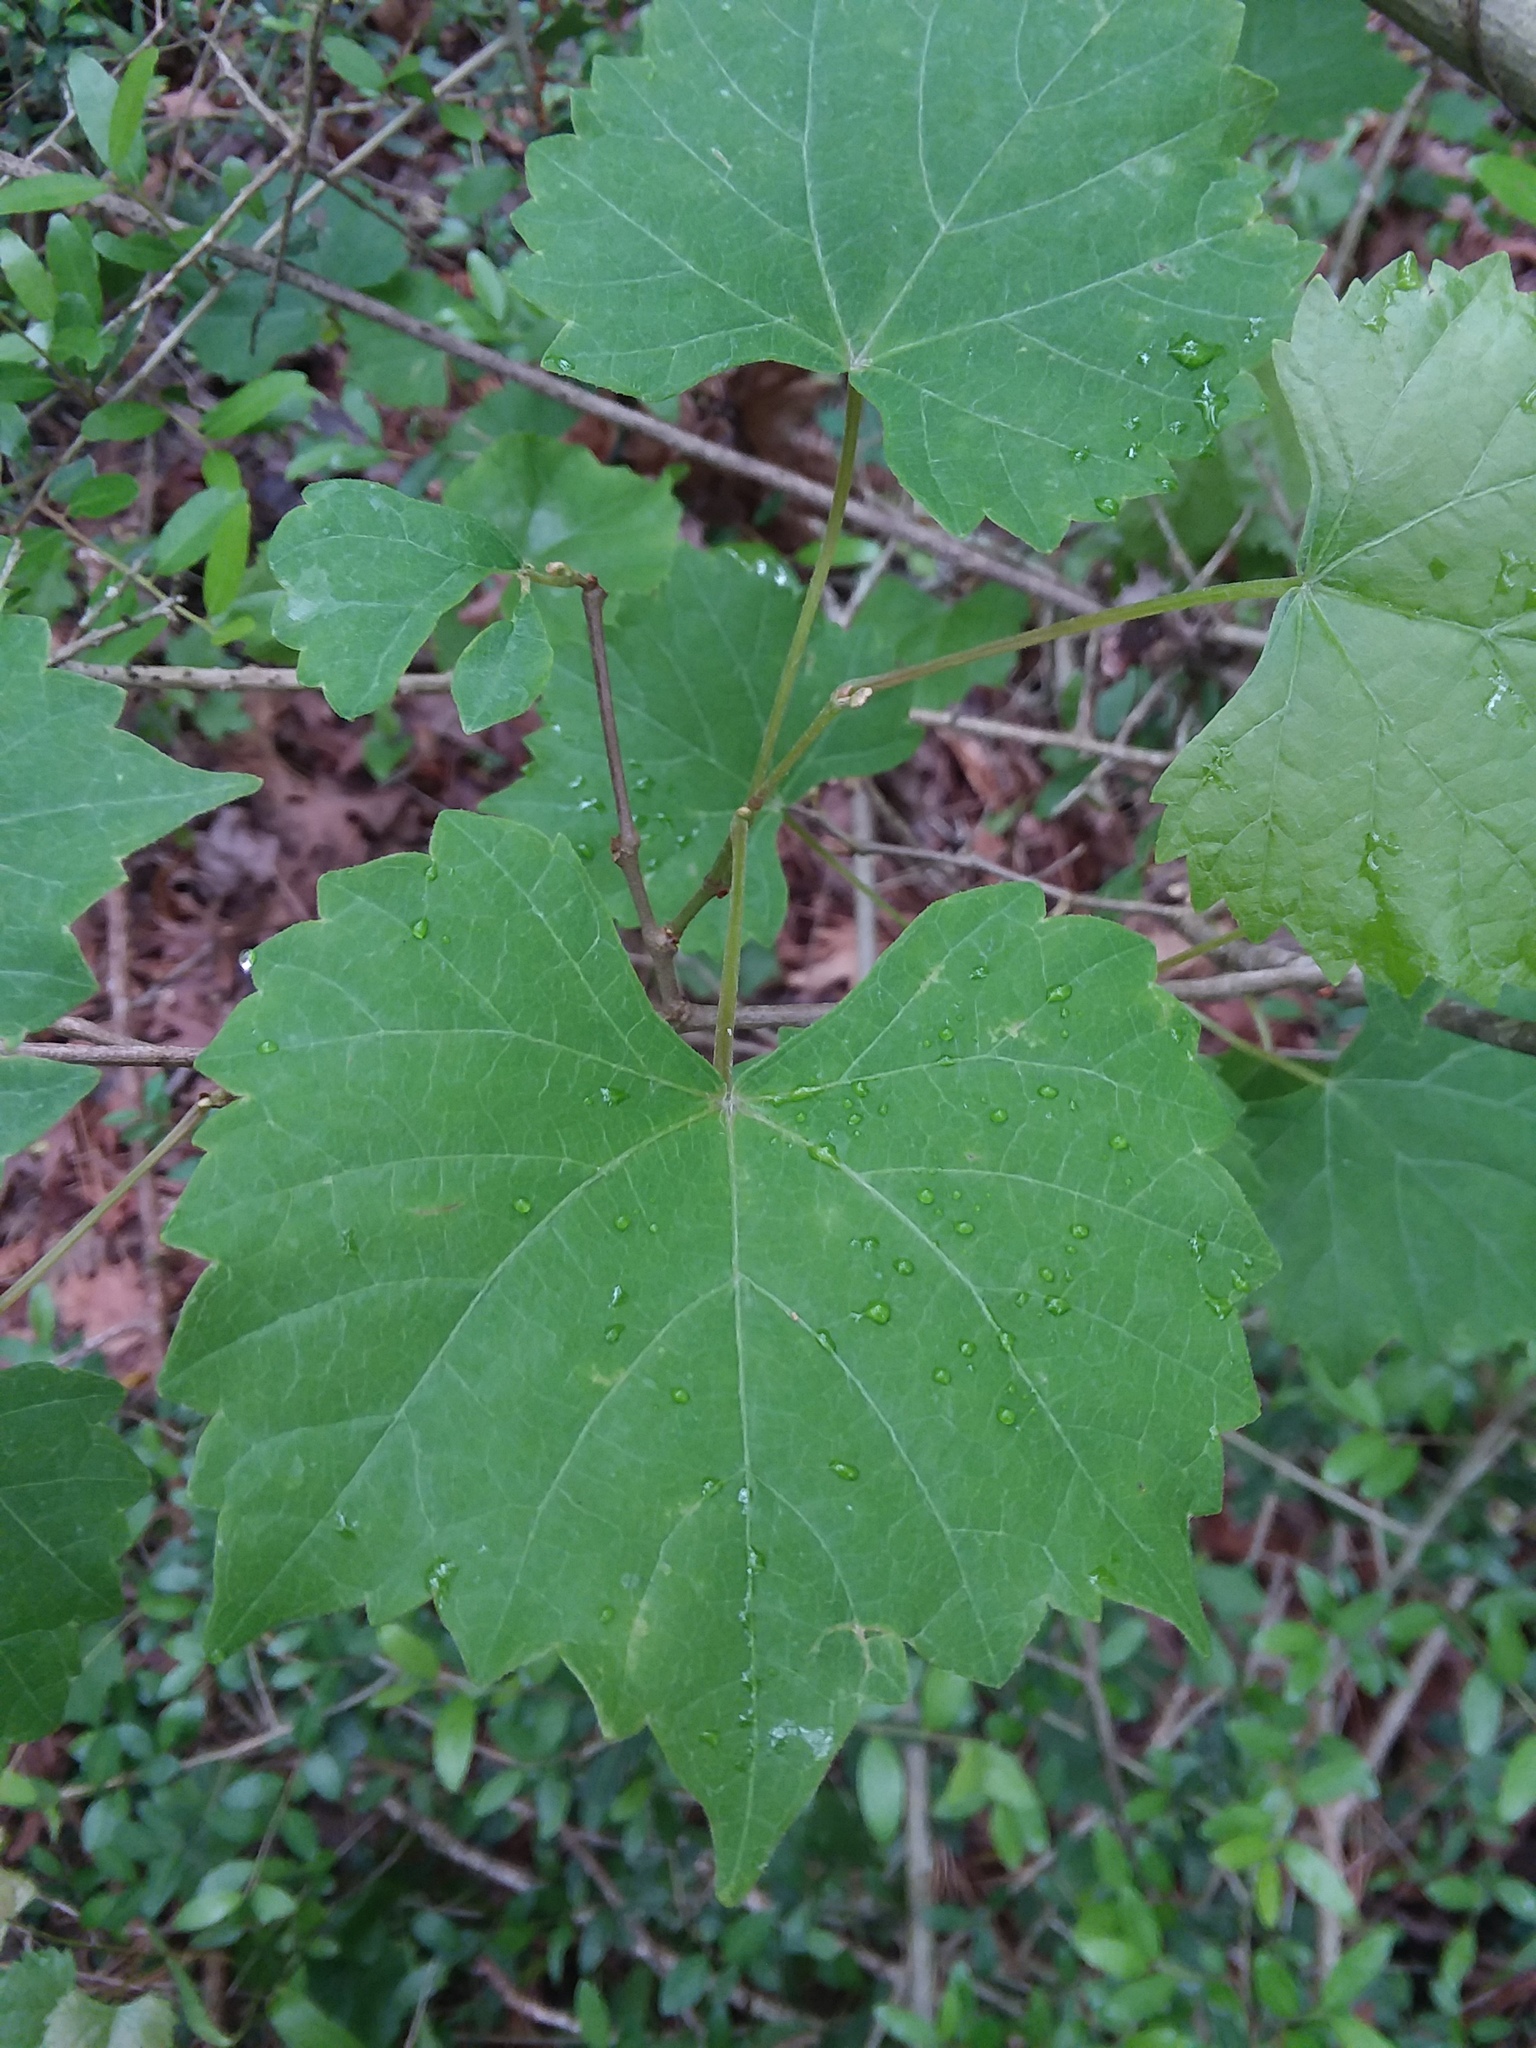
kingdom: Plantae
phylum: Tracheophyta
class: Magnoliopsida
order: Vitales
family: Vitaceae
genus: Vitis
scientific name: Vitis rotundifolia
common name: Muscadine grape
